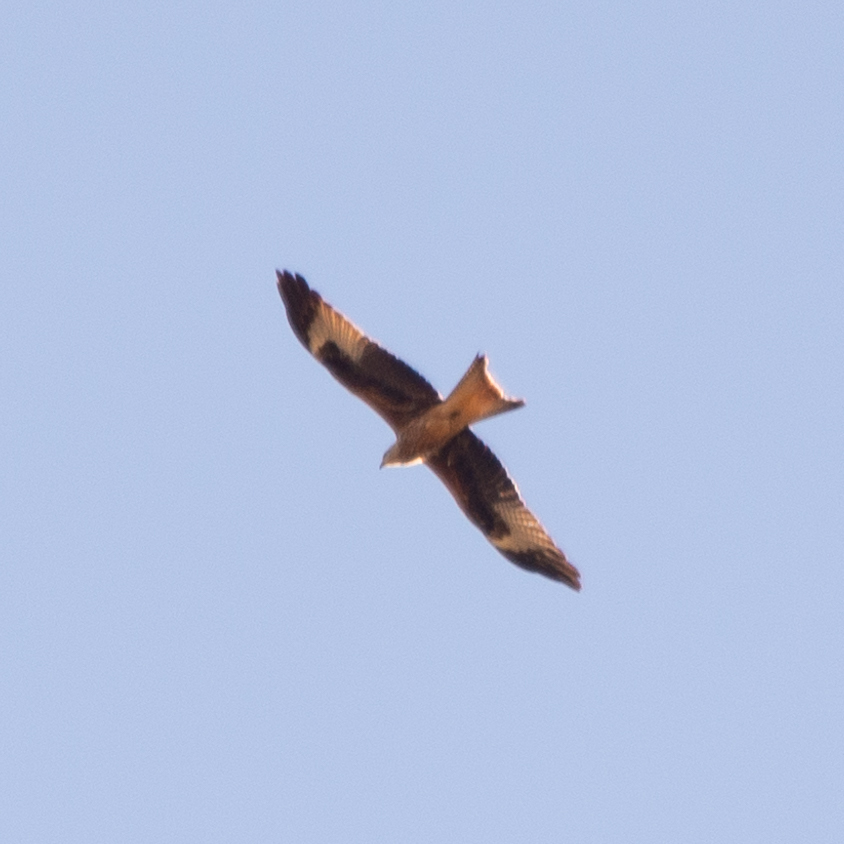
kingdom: Animalia
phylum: Chordata
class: Aves
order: Accipitriformes
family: Accipitridae
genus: Milvus
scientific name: Milvus milvus
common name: Red kite
